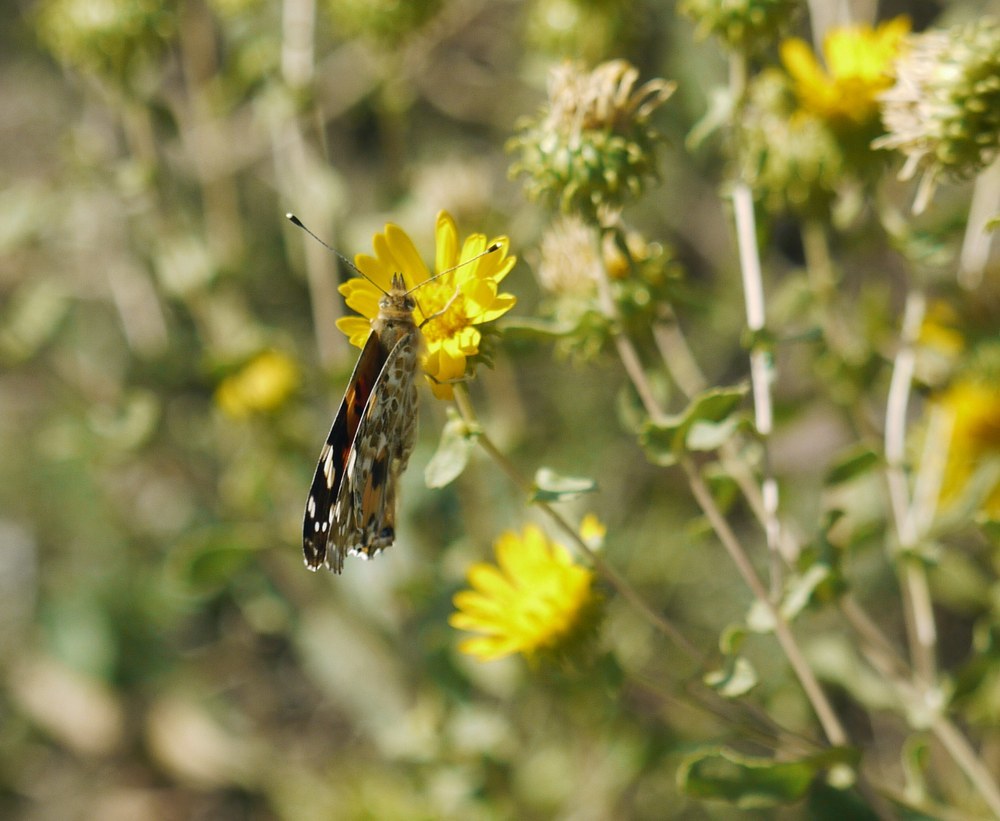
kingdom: Animalia
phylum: Arthropoda
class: Insecta
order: Lepidoptera
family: Nymphalidae
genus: Vanessa
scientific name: Vanessa cardui
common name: Painted lady
